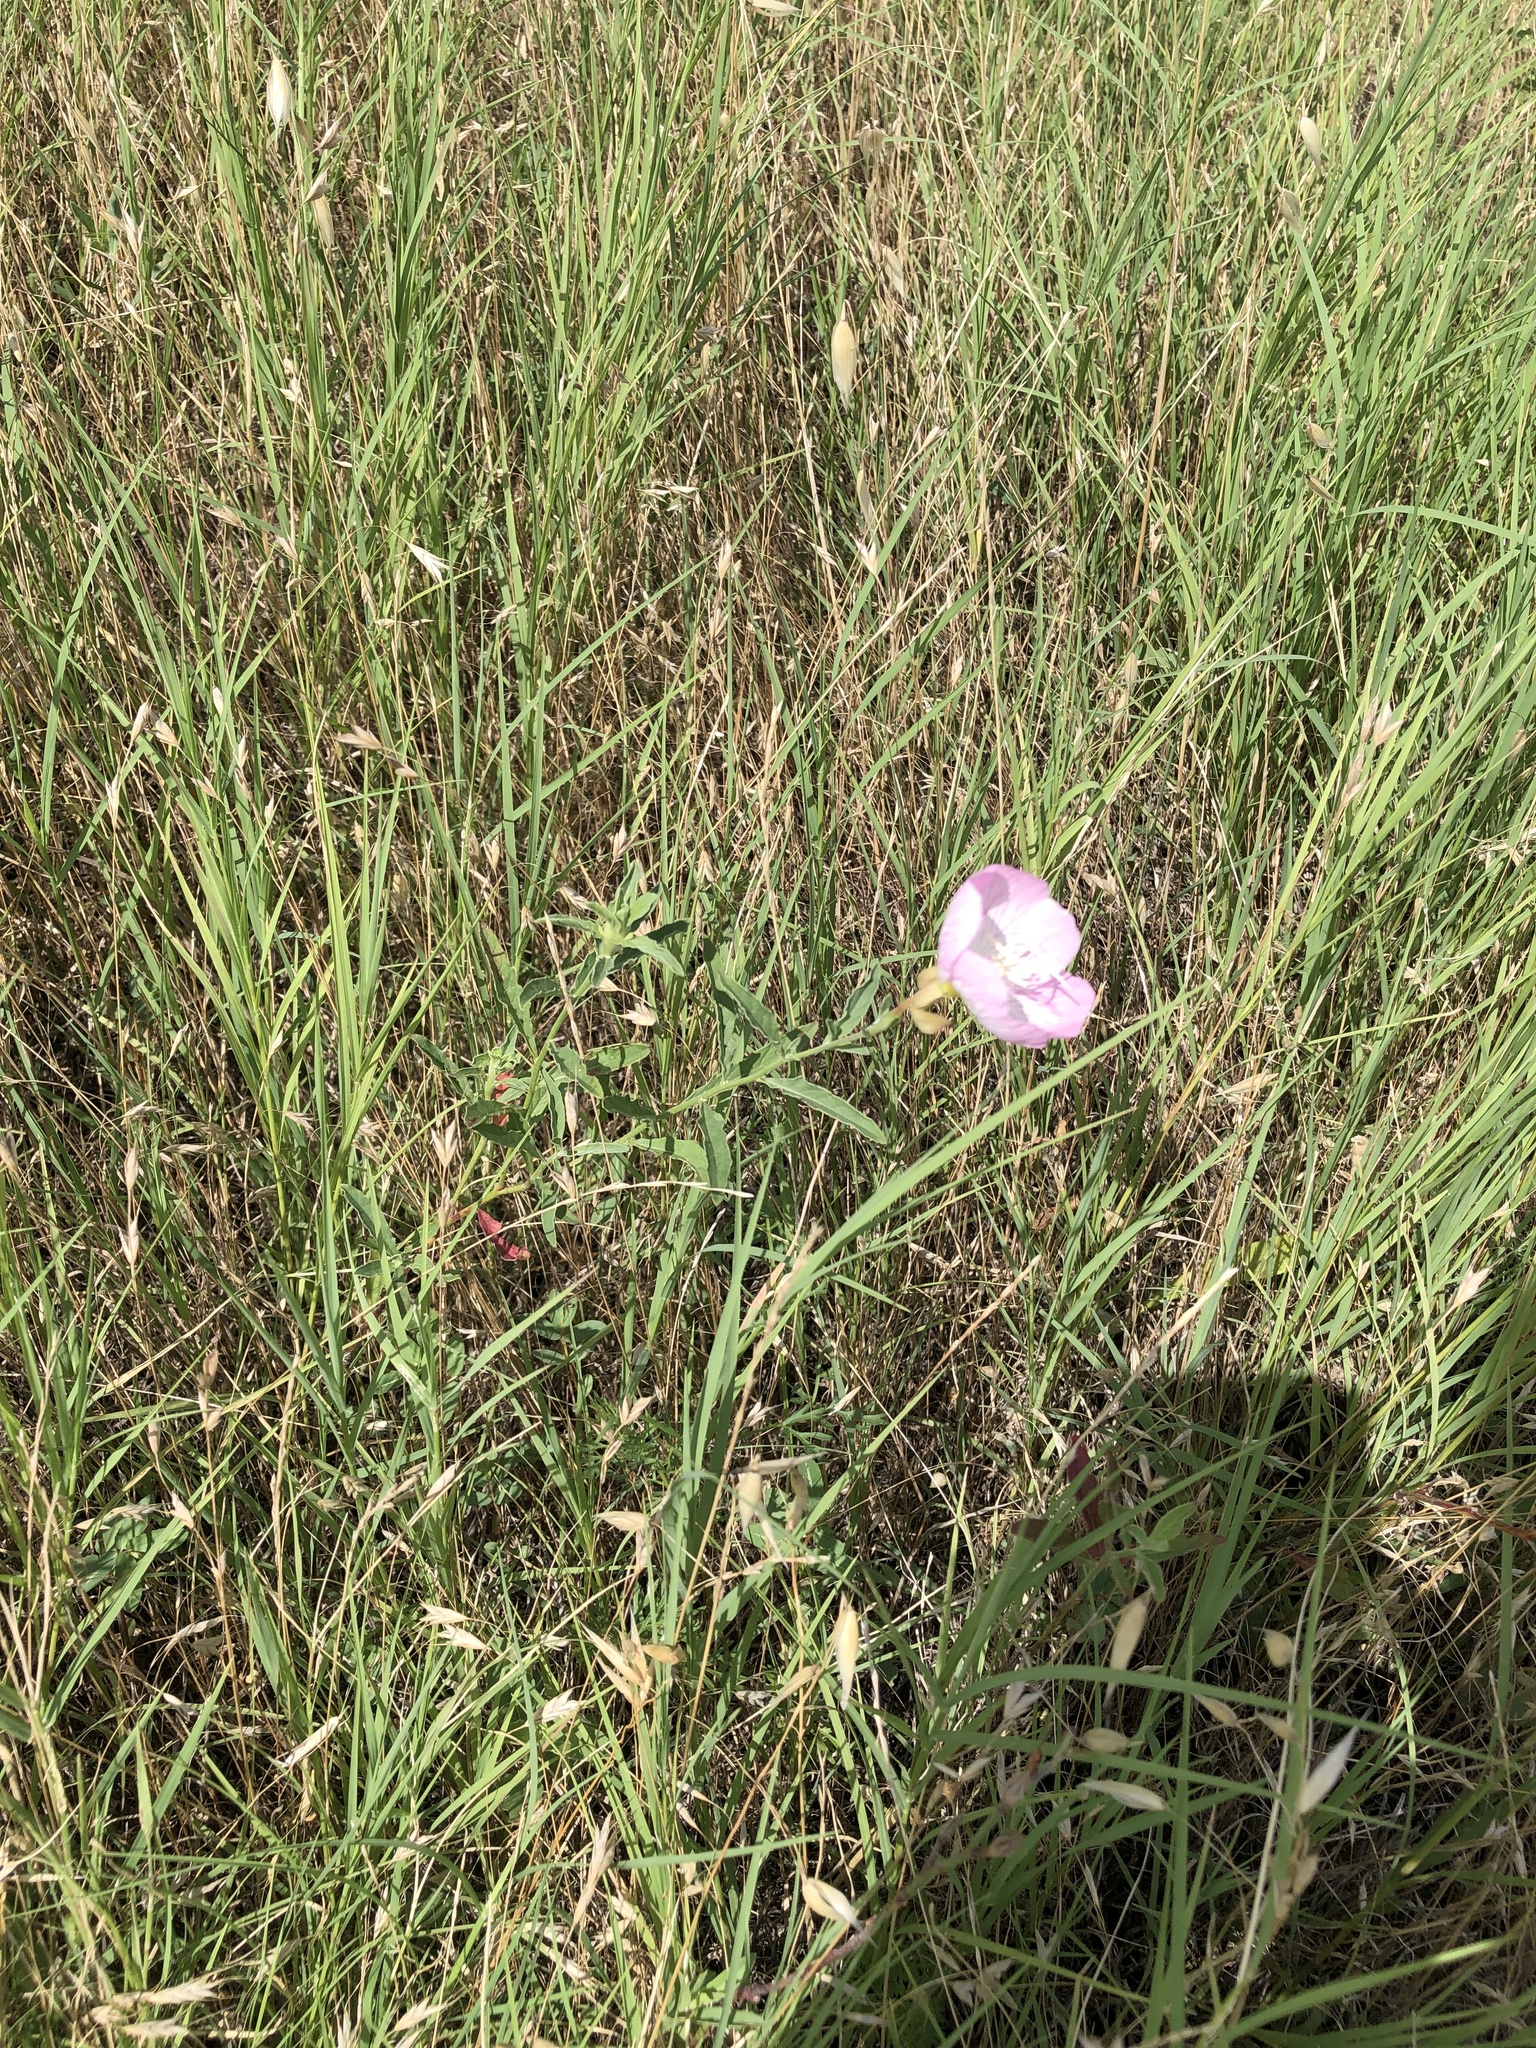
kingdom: Plantae
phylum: Tracheophyta
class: Magnoliopsida
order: Myrtales
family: Onagraceae
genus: Oenothera
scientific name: Oenothera speciosa
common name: White evening-primrose
